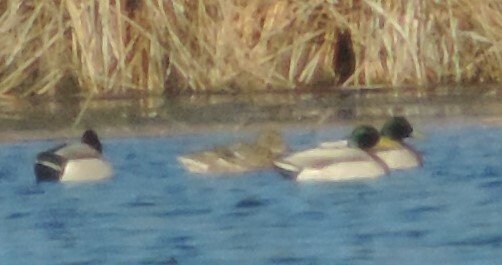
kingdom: Animalia
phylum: Chordata
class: Aves
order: Anseriformes
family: Anatidae
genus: Anas
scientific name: Anas platyrhynchos
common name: Mallard
